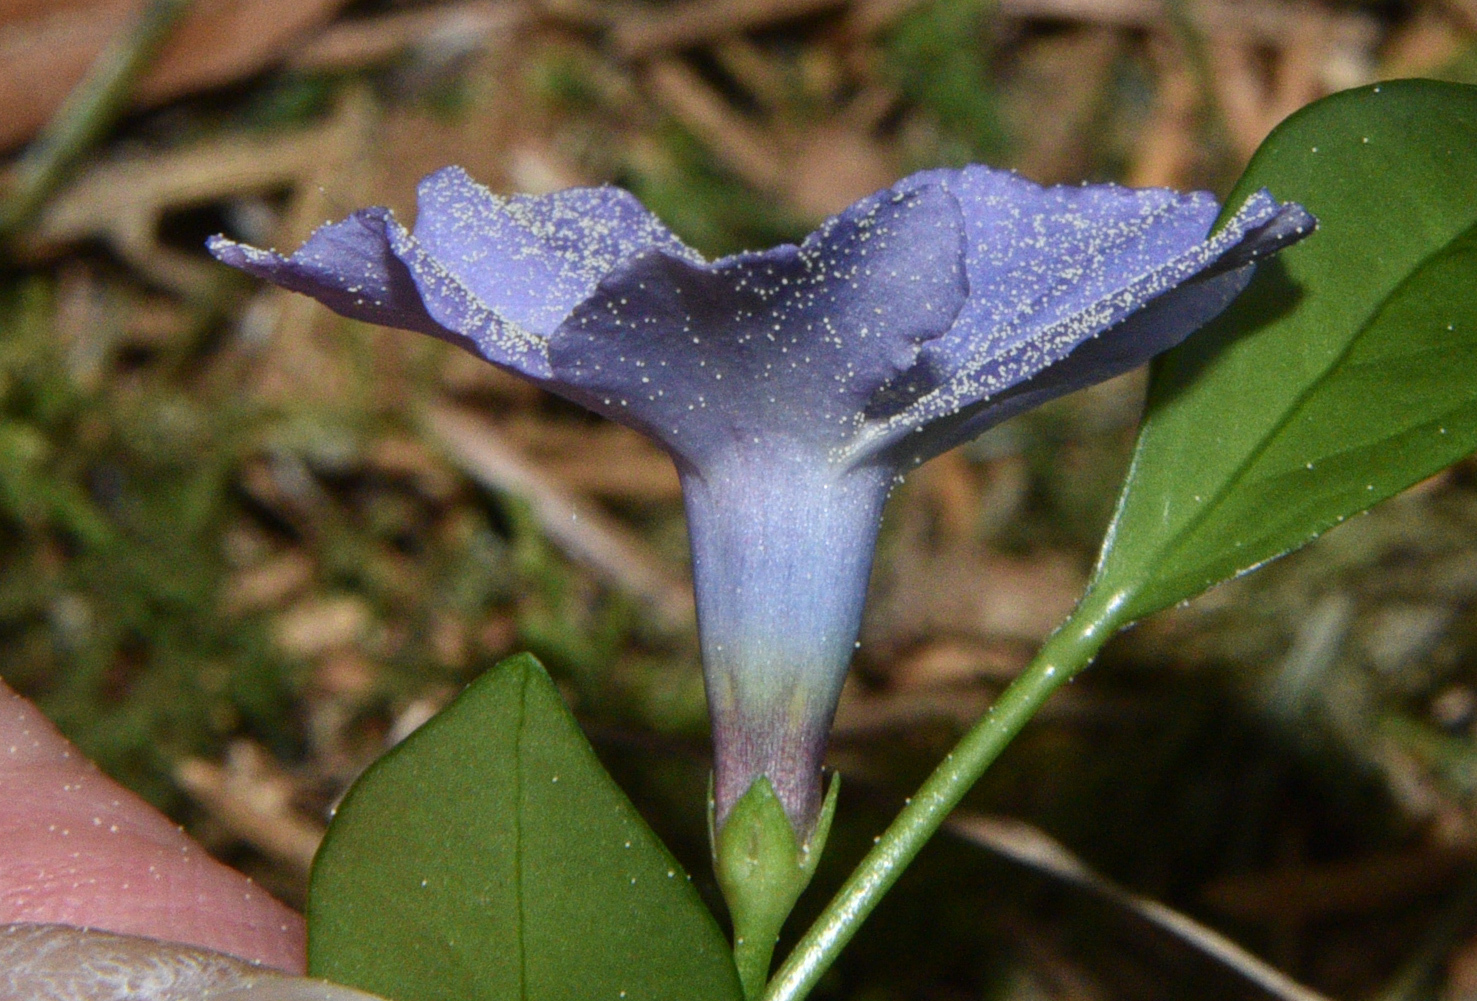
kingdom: Plantae
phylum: Tracheophyta
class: Magnoliopsida
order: Gentianales
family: Apocynaceae
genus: Vinca
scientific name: Vinca minor
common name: Lesser periwinkle
